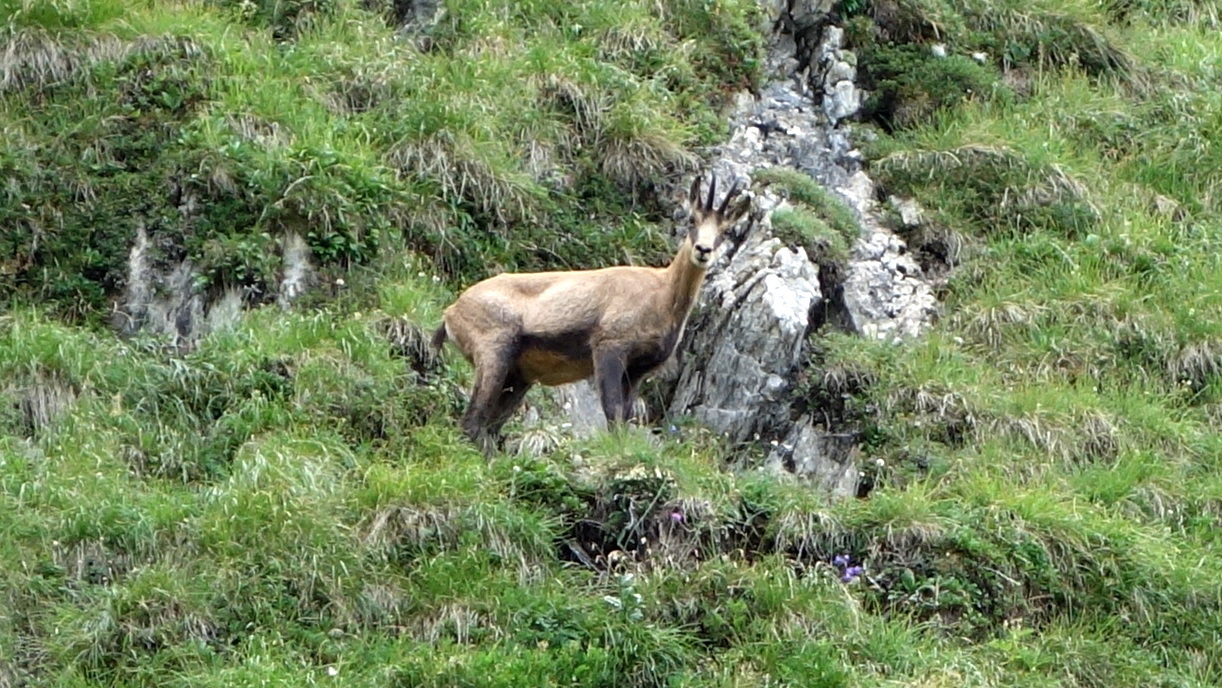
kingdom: Animalia
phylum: Chordata
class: Mammalia
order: Artiodactyla
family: Bovidae
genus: Rupicapra
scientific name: Rupicapra rupicapra
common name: Chamois
